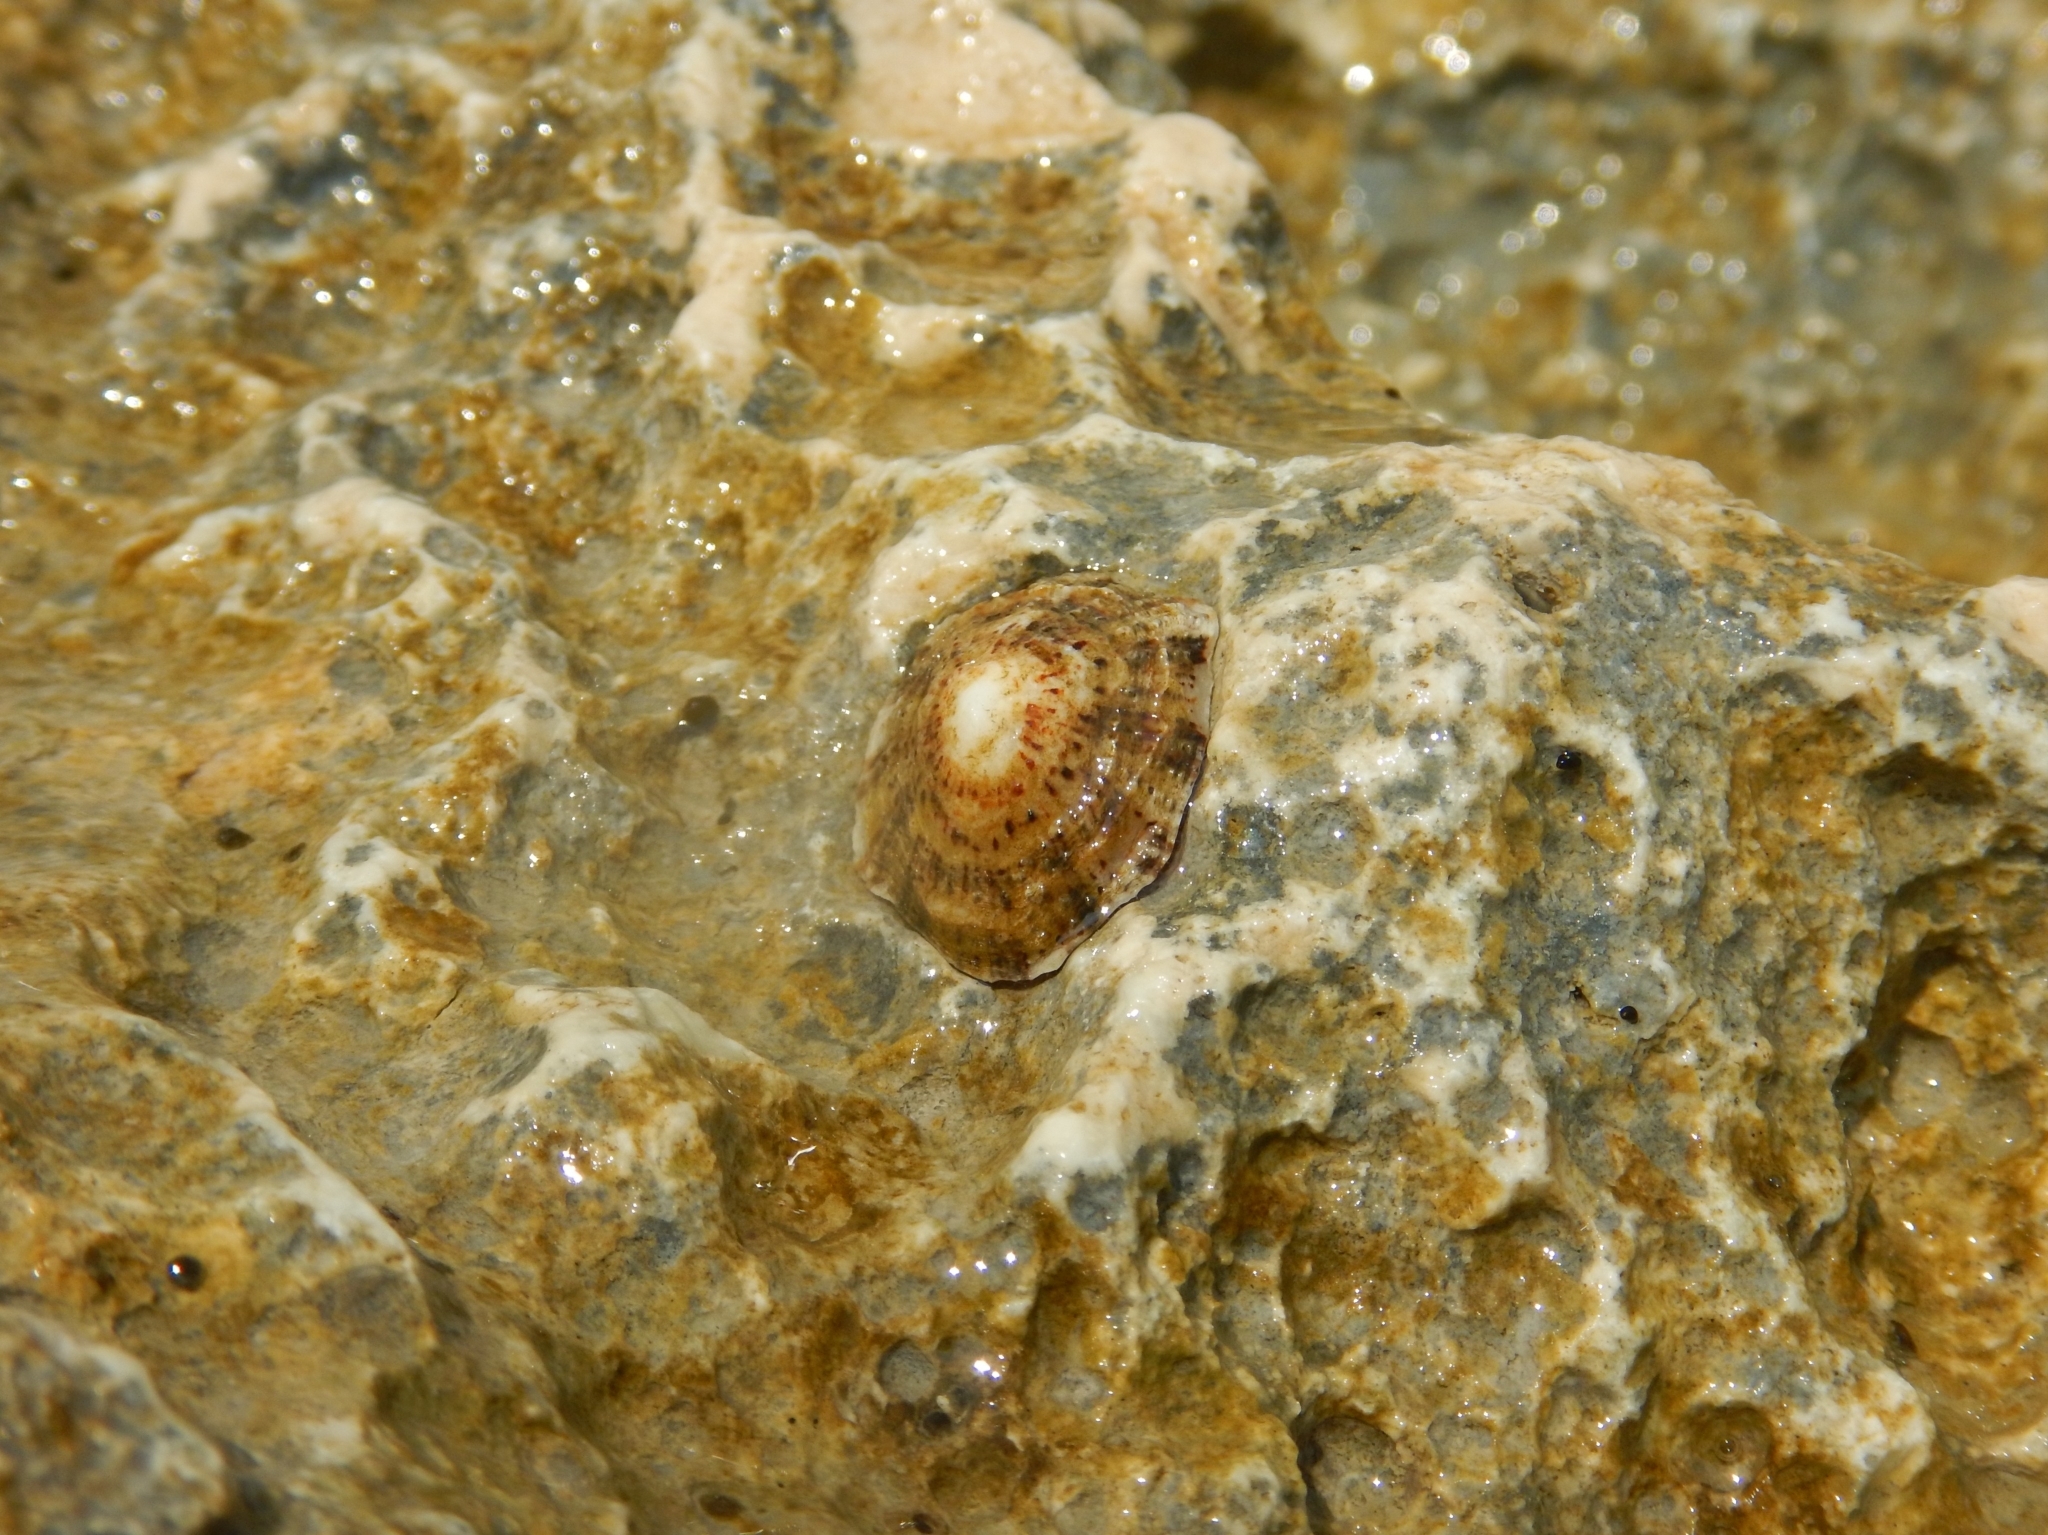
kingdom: Animalia
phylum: Mollusca
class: Gastropoda
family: Patellidae
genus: Patella
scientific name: Patella rustica
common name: Lusitanian limpet
